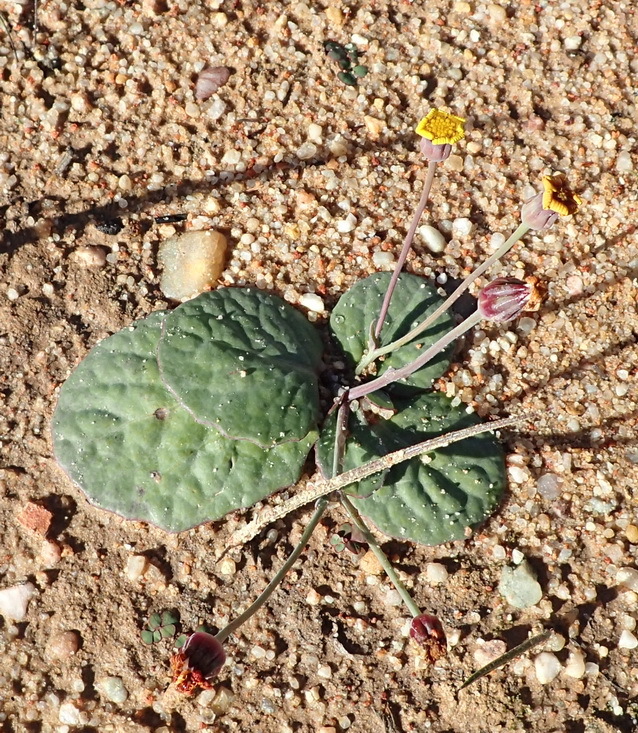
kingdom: Plantae
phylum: Tracheophyta
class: Magnoliopsida
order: Asterales
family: Asteraceae
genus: Othonna
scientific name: Othonna oleracea
